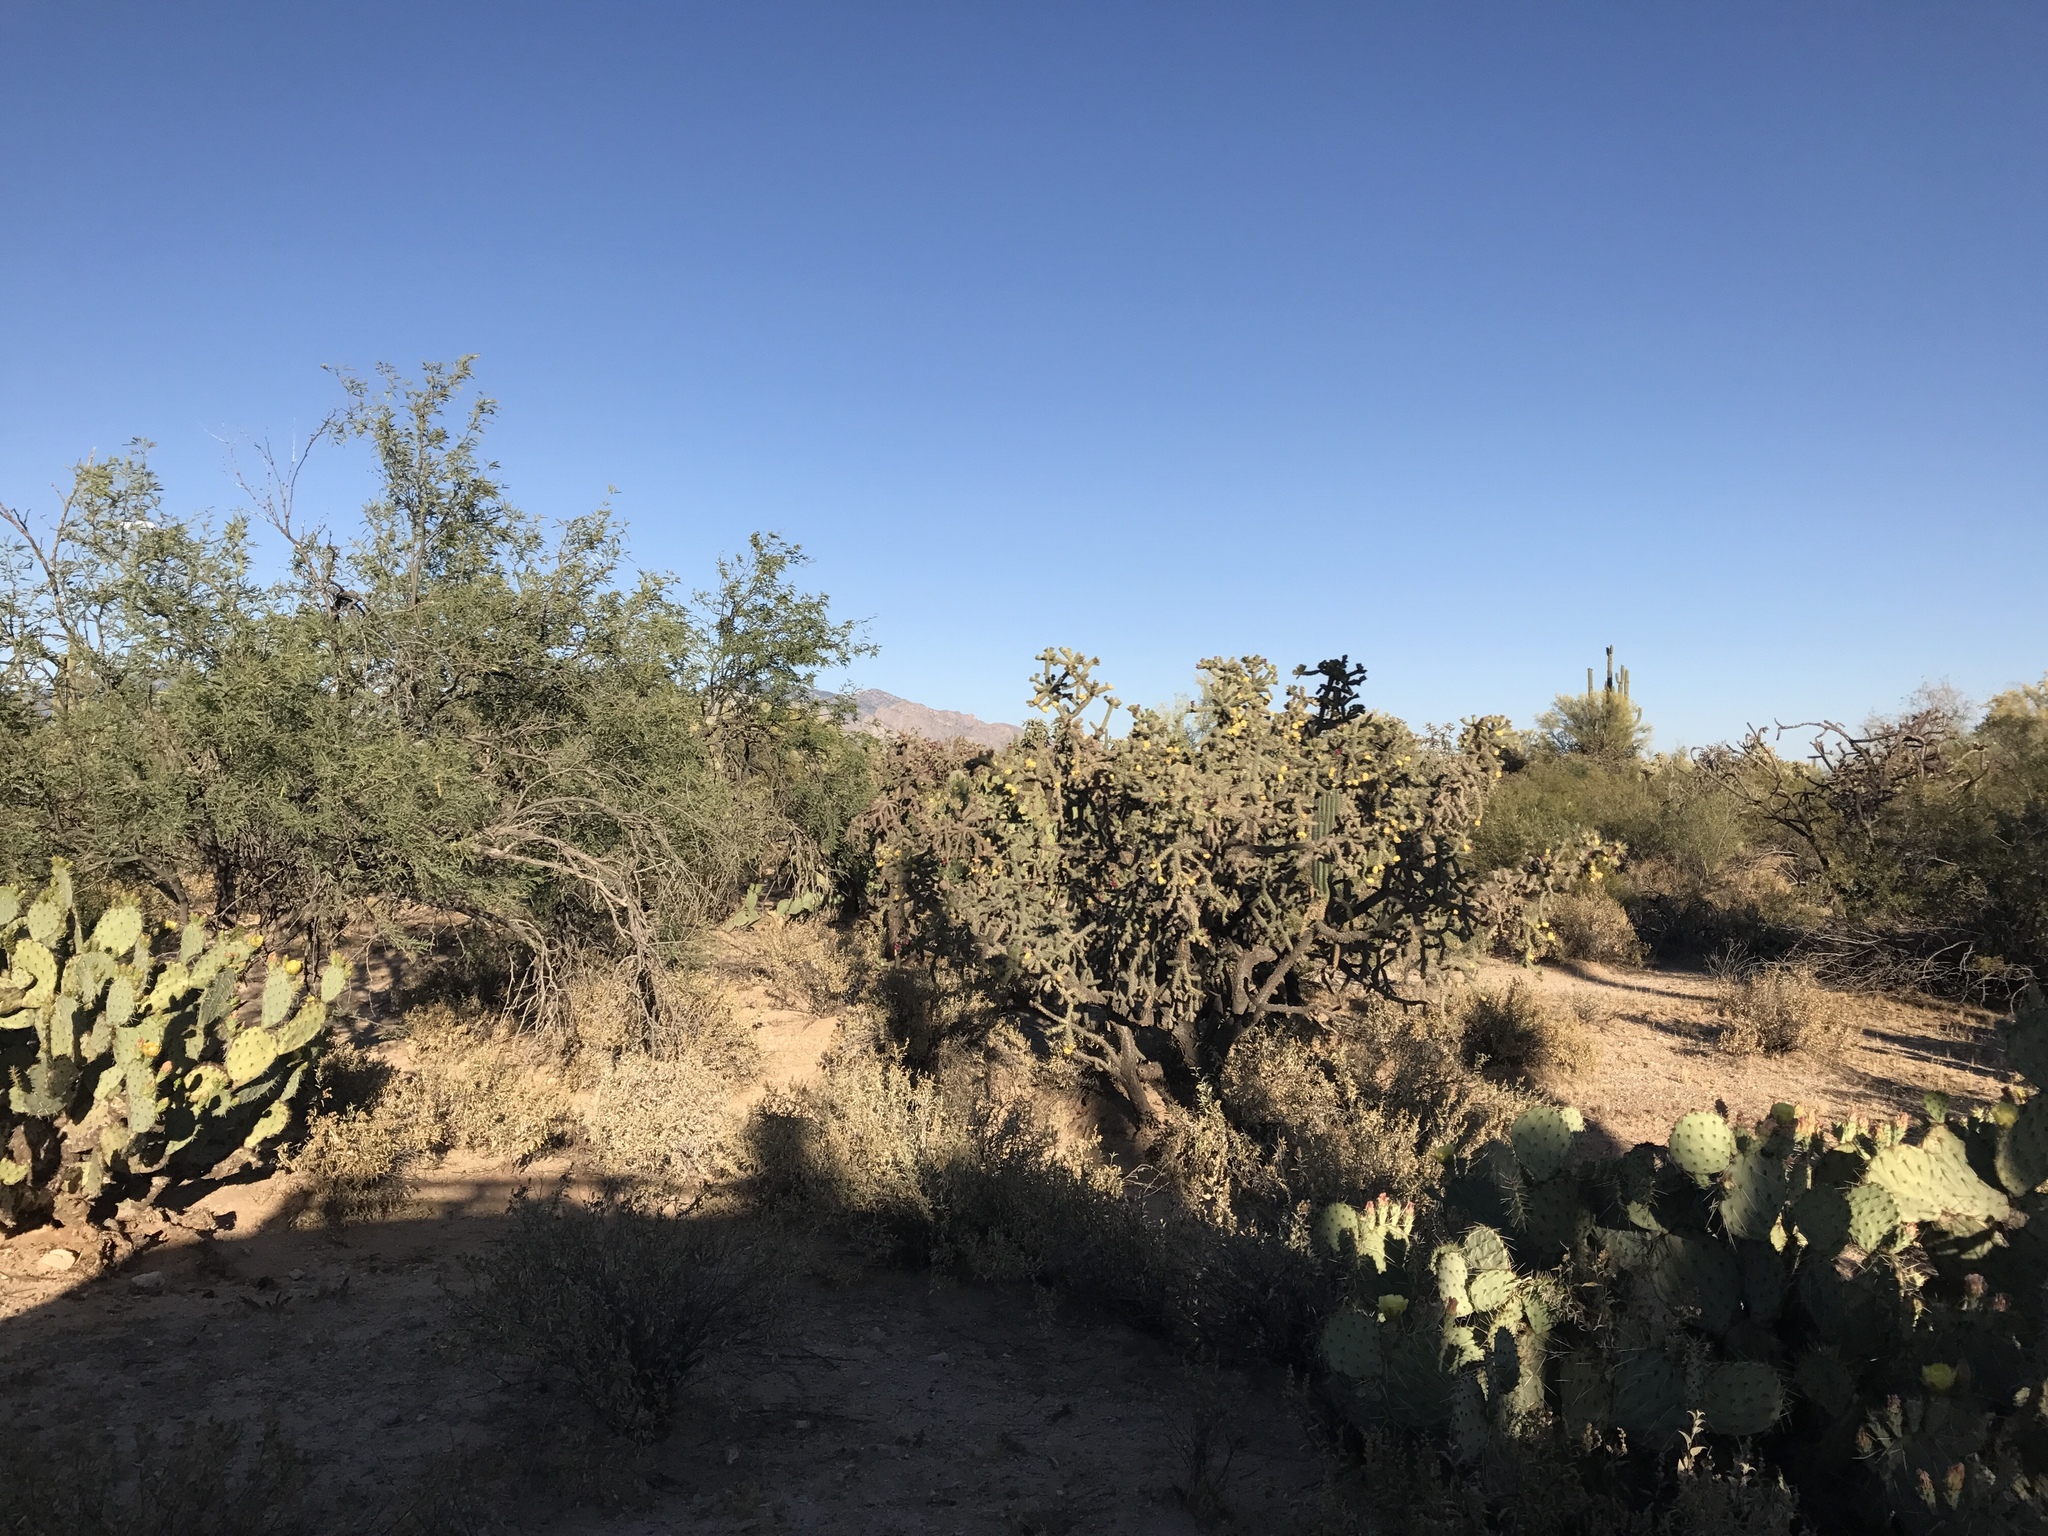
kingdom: Plantae
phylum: Tracheophyta
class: Magnoliopsida
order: Caryophyllales
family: Cactaceae
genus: Cylindropuntia
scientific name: Cylindropuntia thurberi
